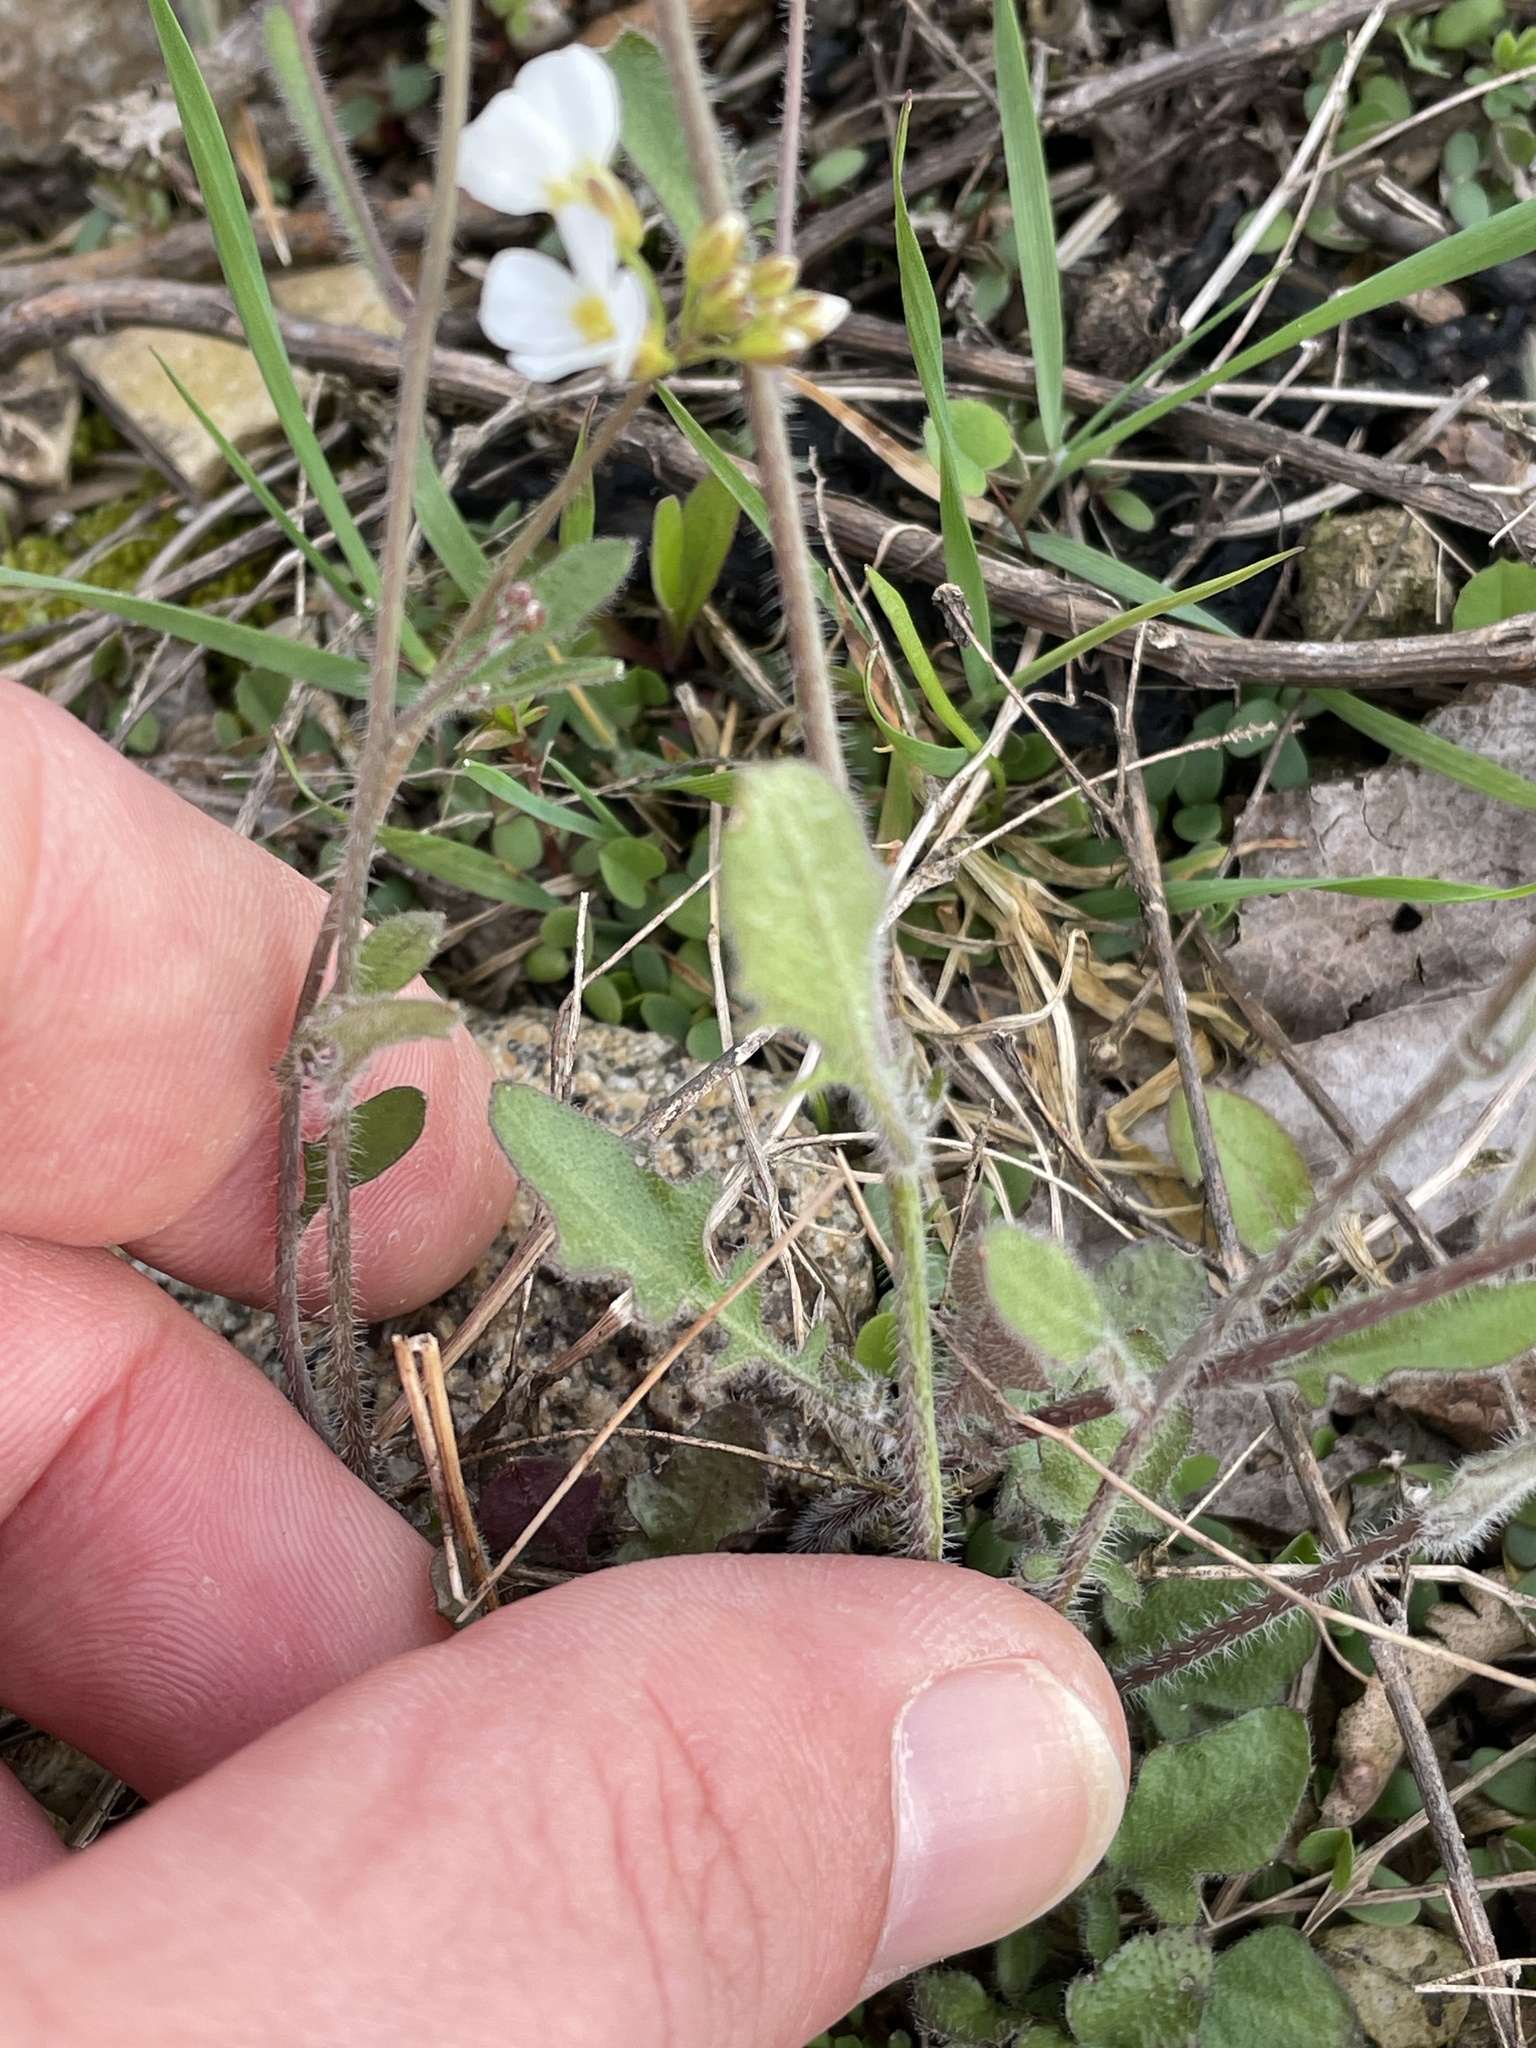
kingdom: Plantae
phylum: Tracheophyta
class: Magnoliopsida
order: Brassicales
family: Brassicaceae
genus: Arabidopsis
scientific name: Arabidopsis arenosa
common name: Sand rock-cress
